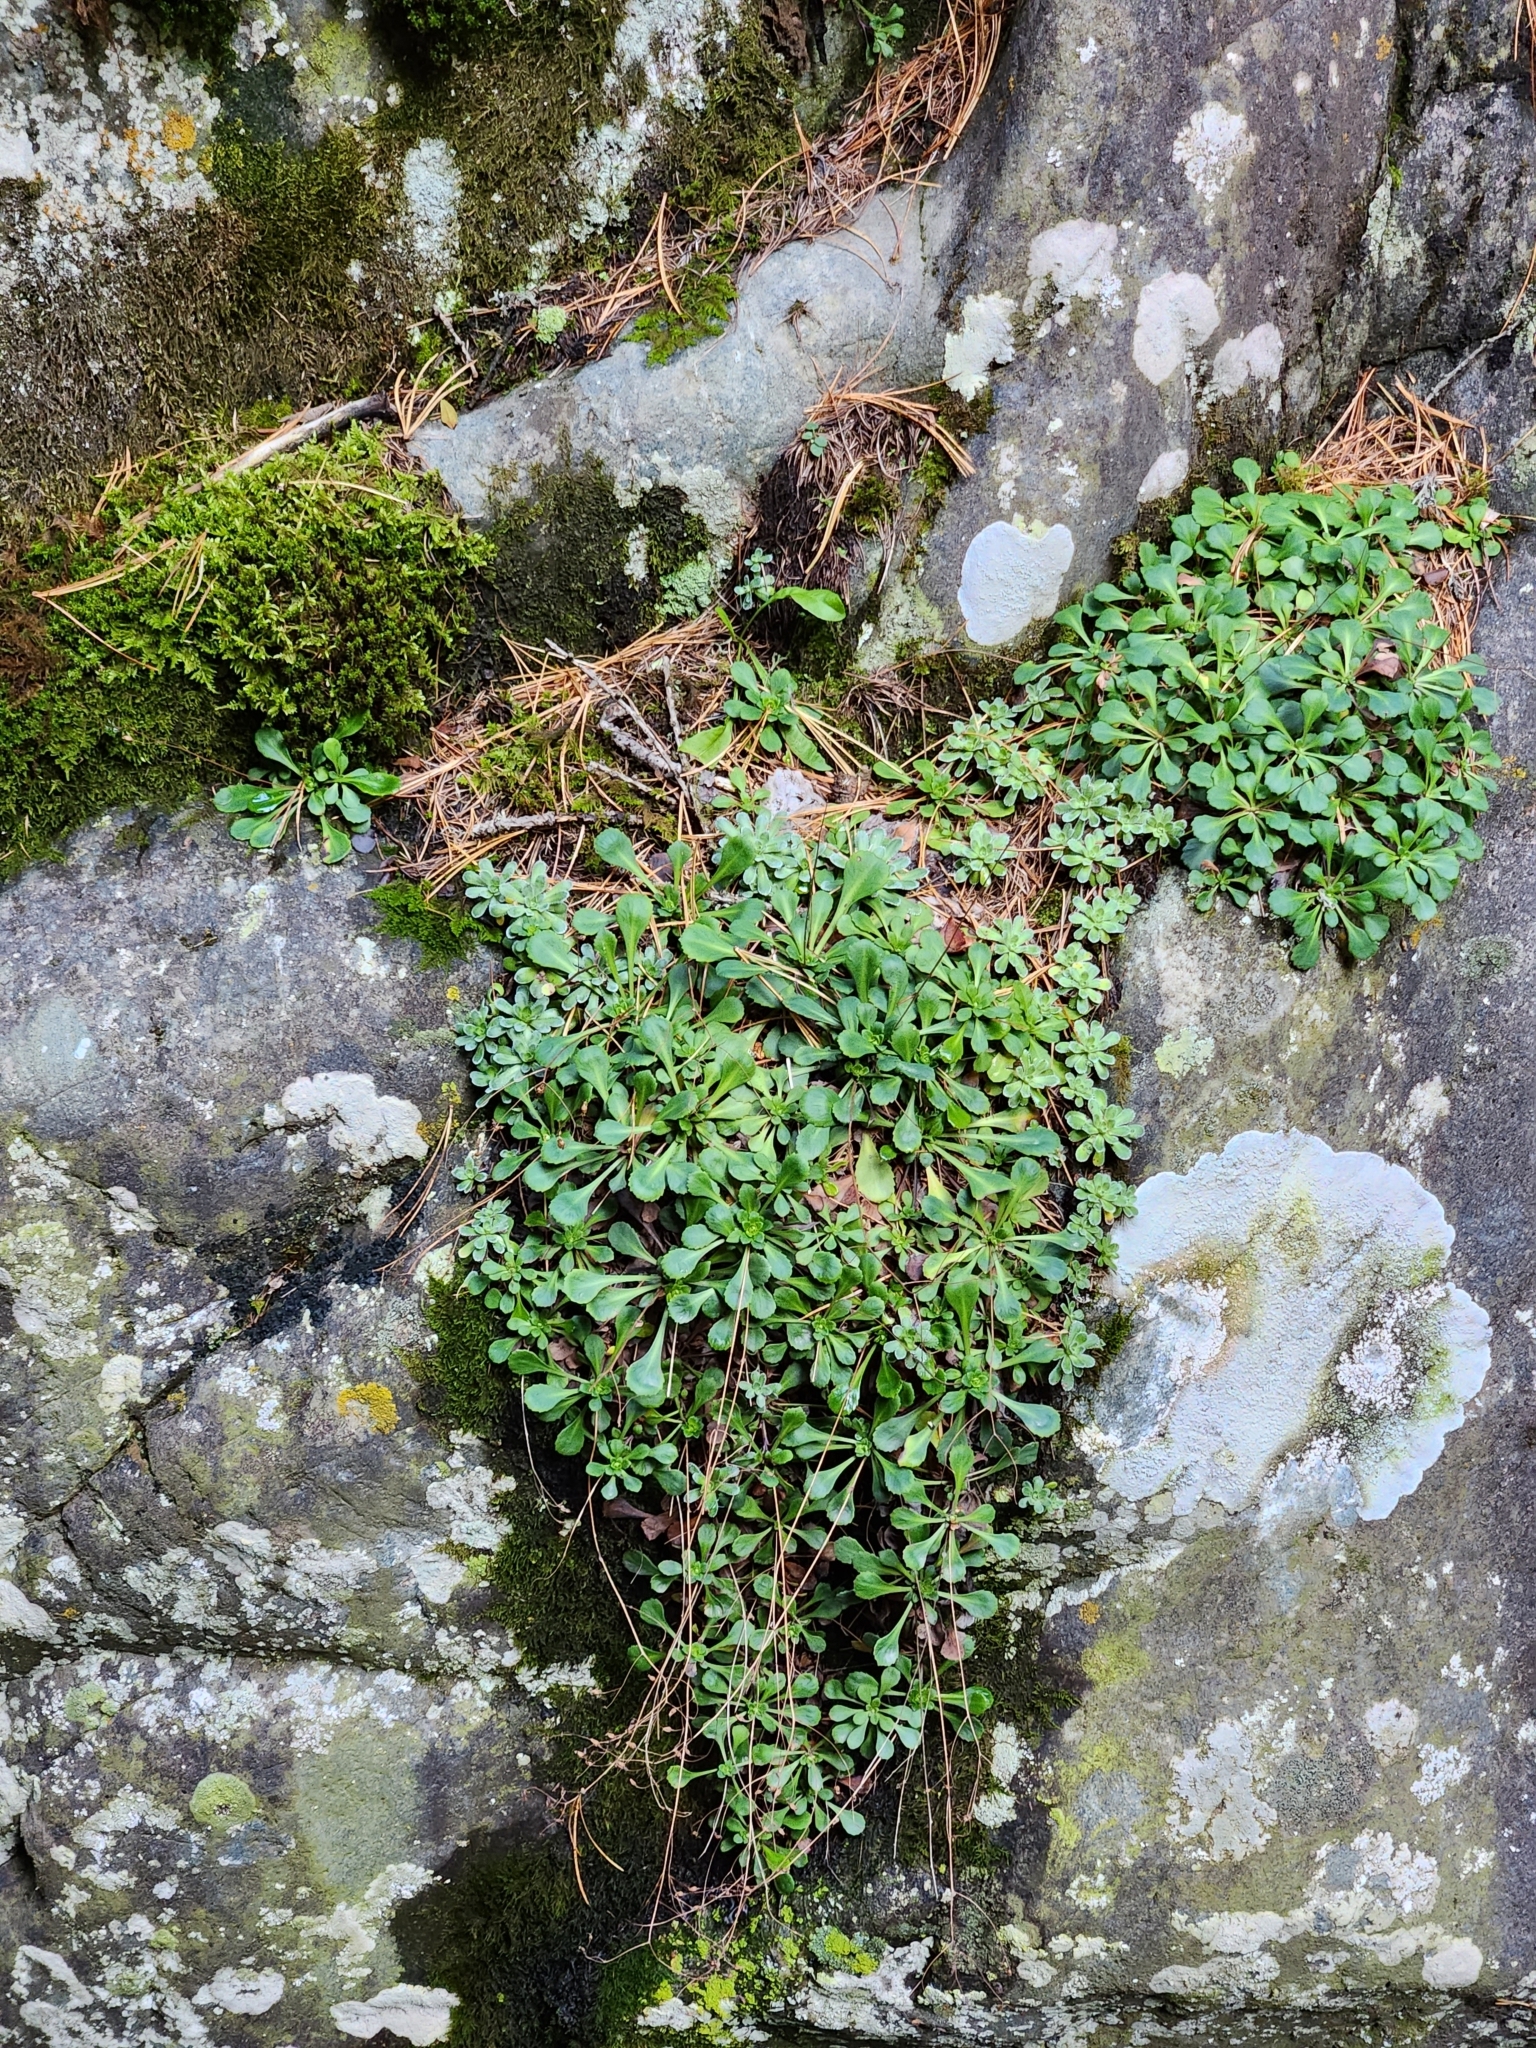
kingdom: Plantae
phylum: Tracheophyta
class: Magnoliopsida
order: Saxifragales
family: Saxifragaceae
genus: Saxifraga
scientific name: Saxifraga cuneifolia
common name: Lesser londonpride
